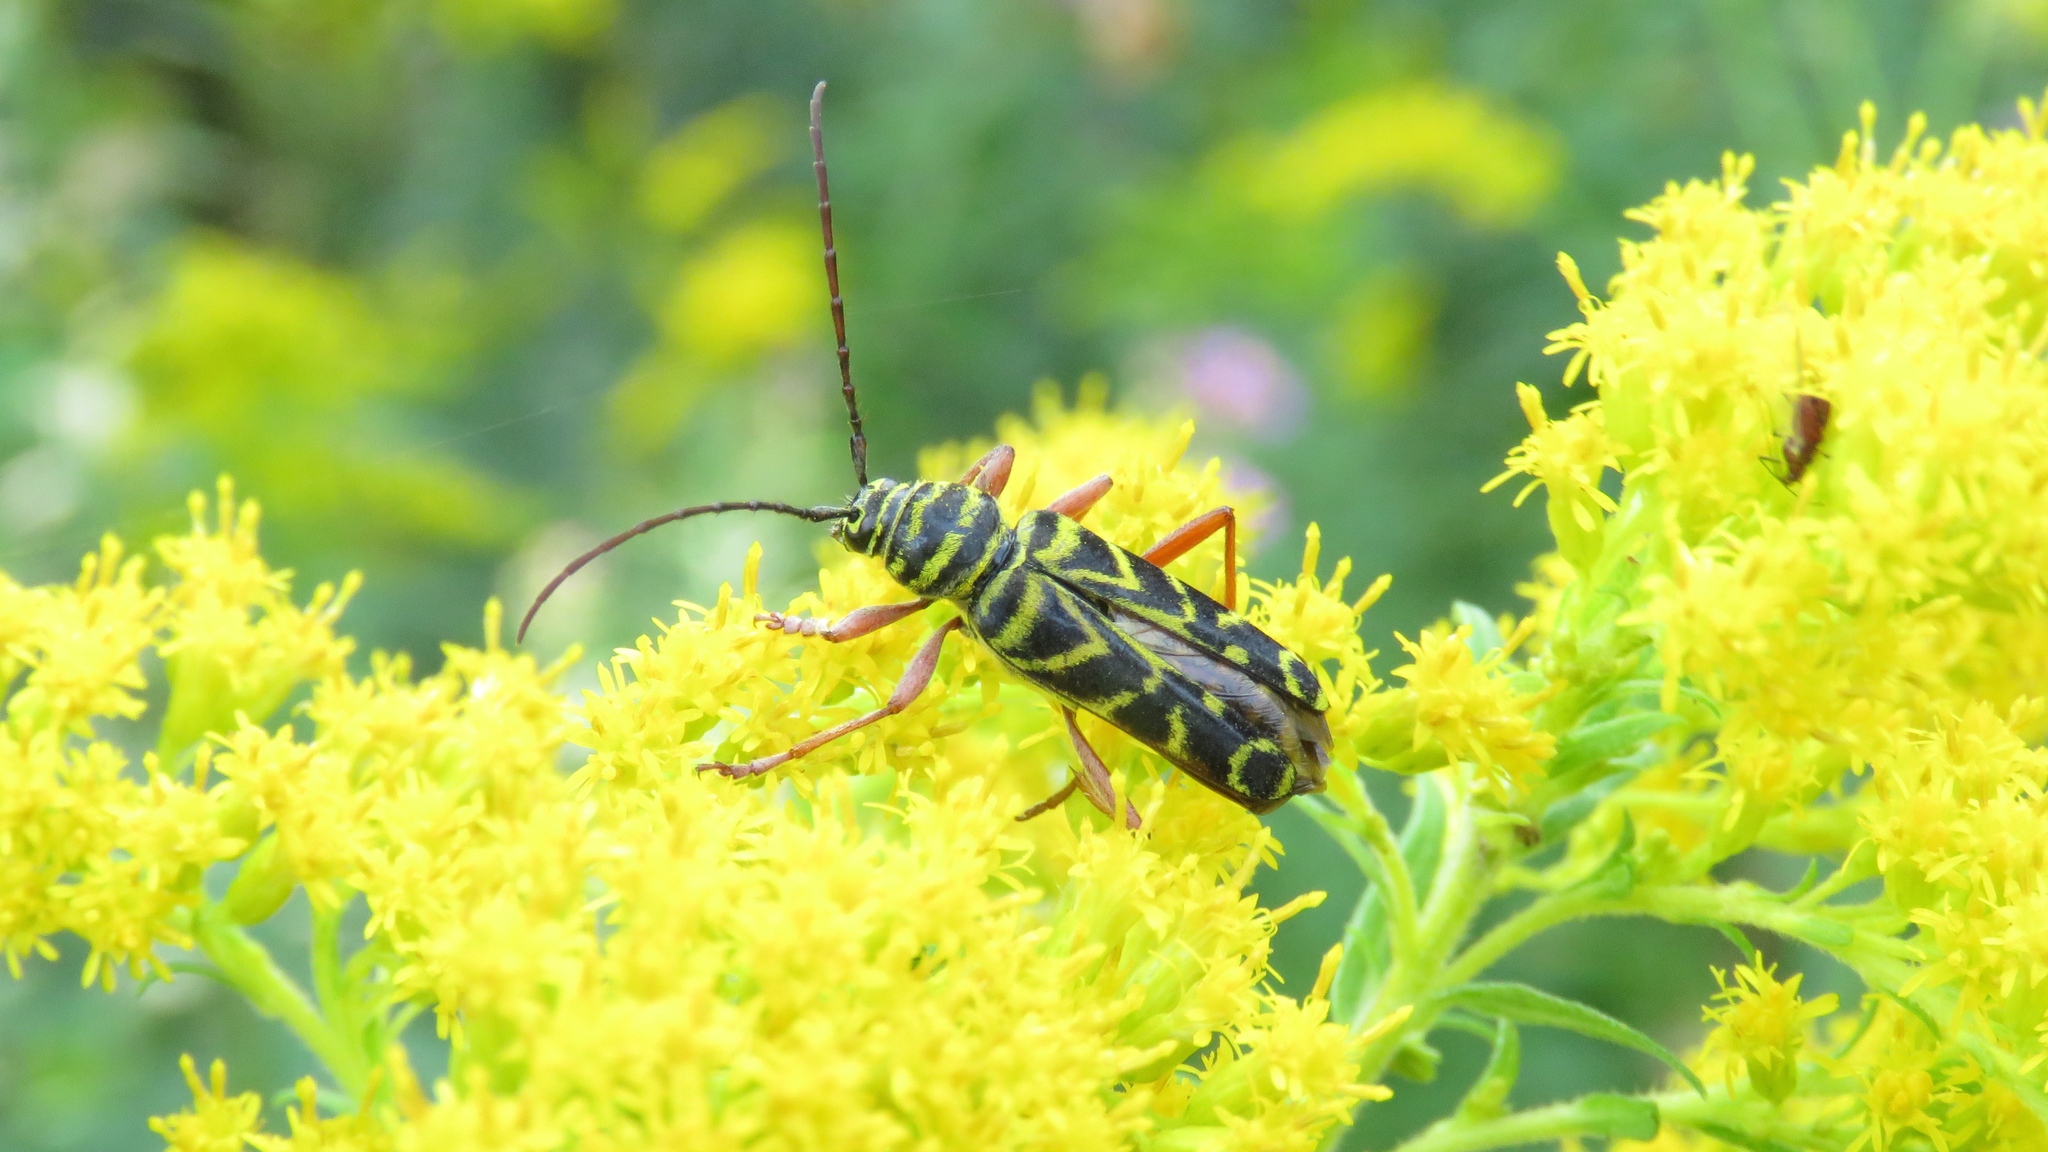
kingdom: Animalia
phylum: Arthropoda
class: Insecta
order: Coleoptera
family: Cerambycidae
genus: Megacyllene
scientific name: Megacyllene robiniae
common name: Locust borer
